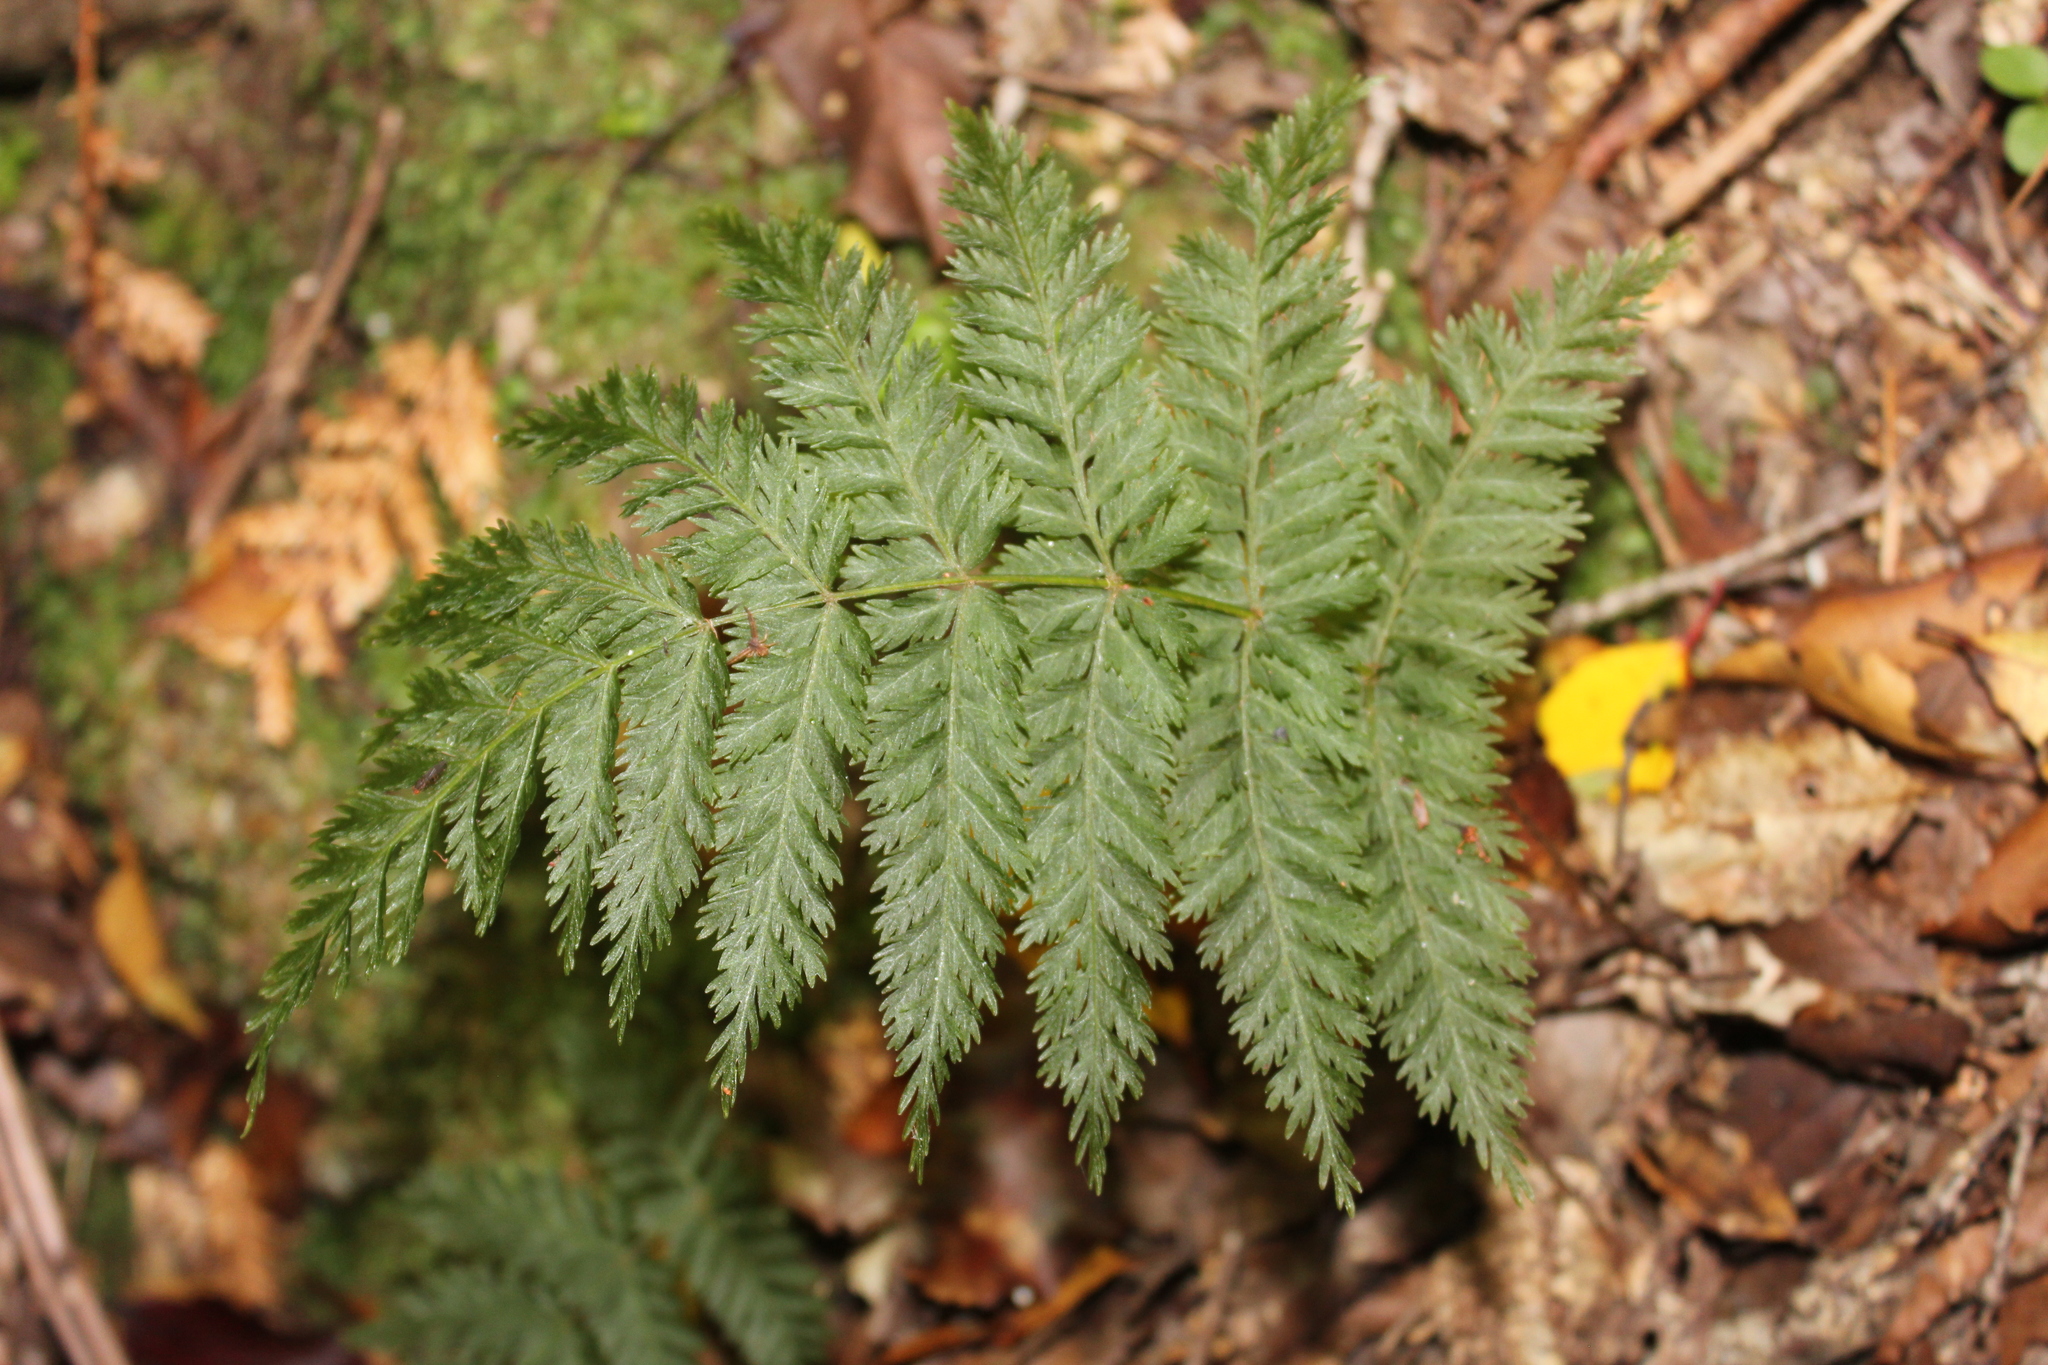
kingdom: Plantae
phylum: Tracheophyta
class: Polypodiopsida
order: Osmundales
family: Osmundaceae
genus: Leptopteris
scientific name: Leptopteris hymenophylloides
